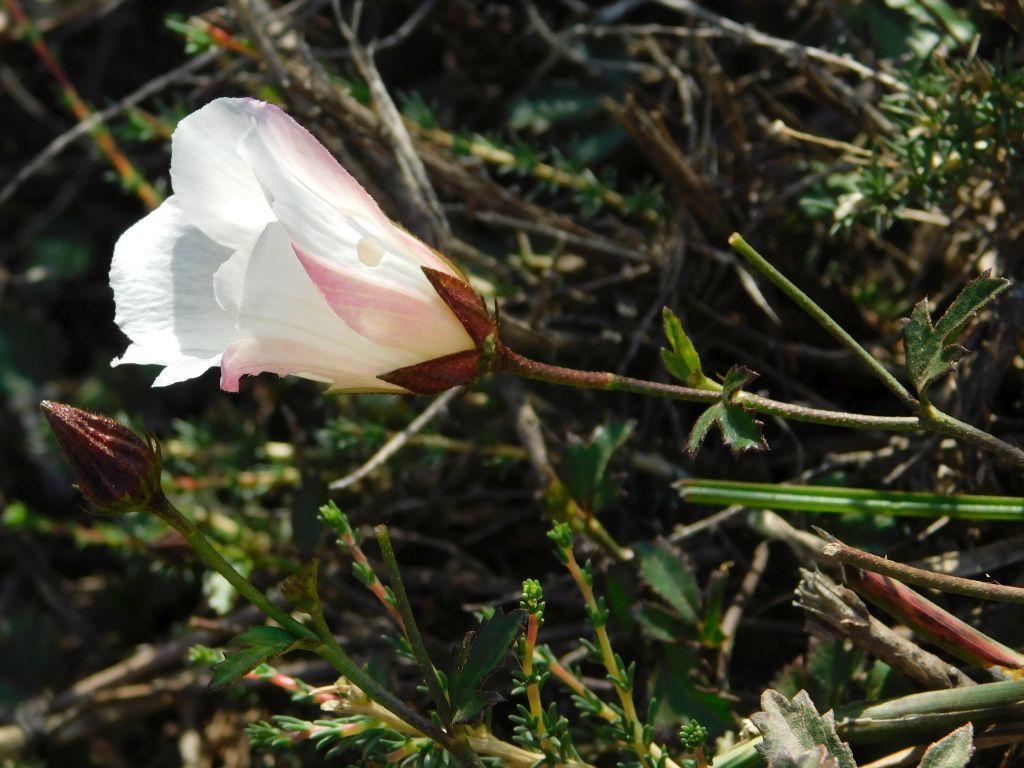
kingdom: Plantae
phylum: Tracheophyta
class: Magnoliopsida
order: Malvales
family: Malvaceae
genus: Hibiscus
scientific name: Hibiscus pusillus
